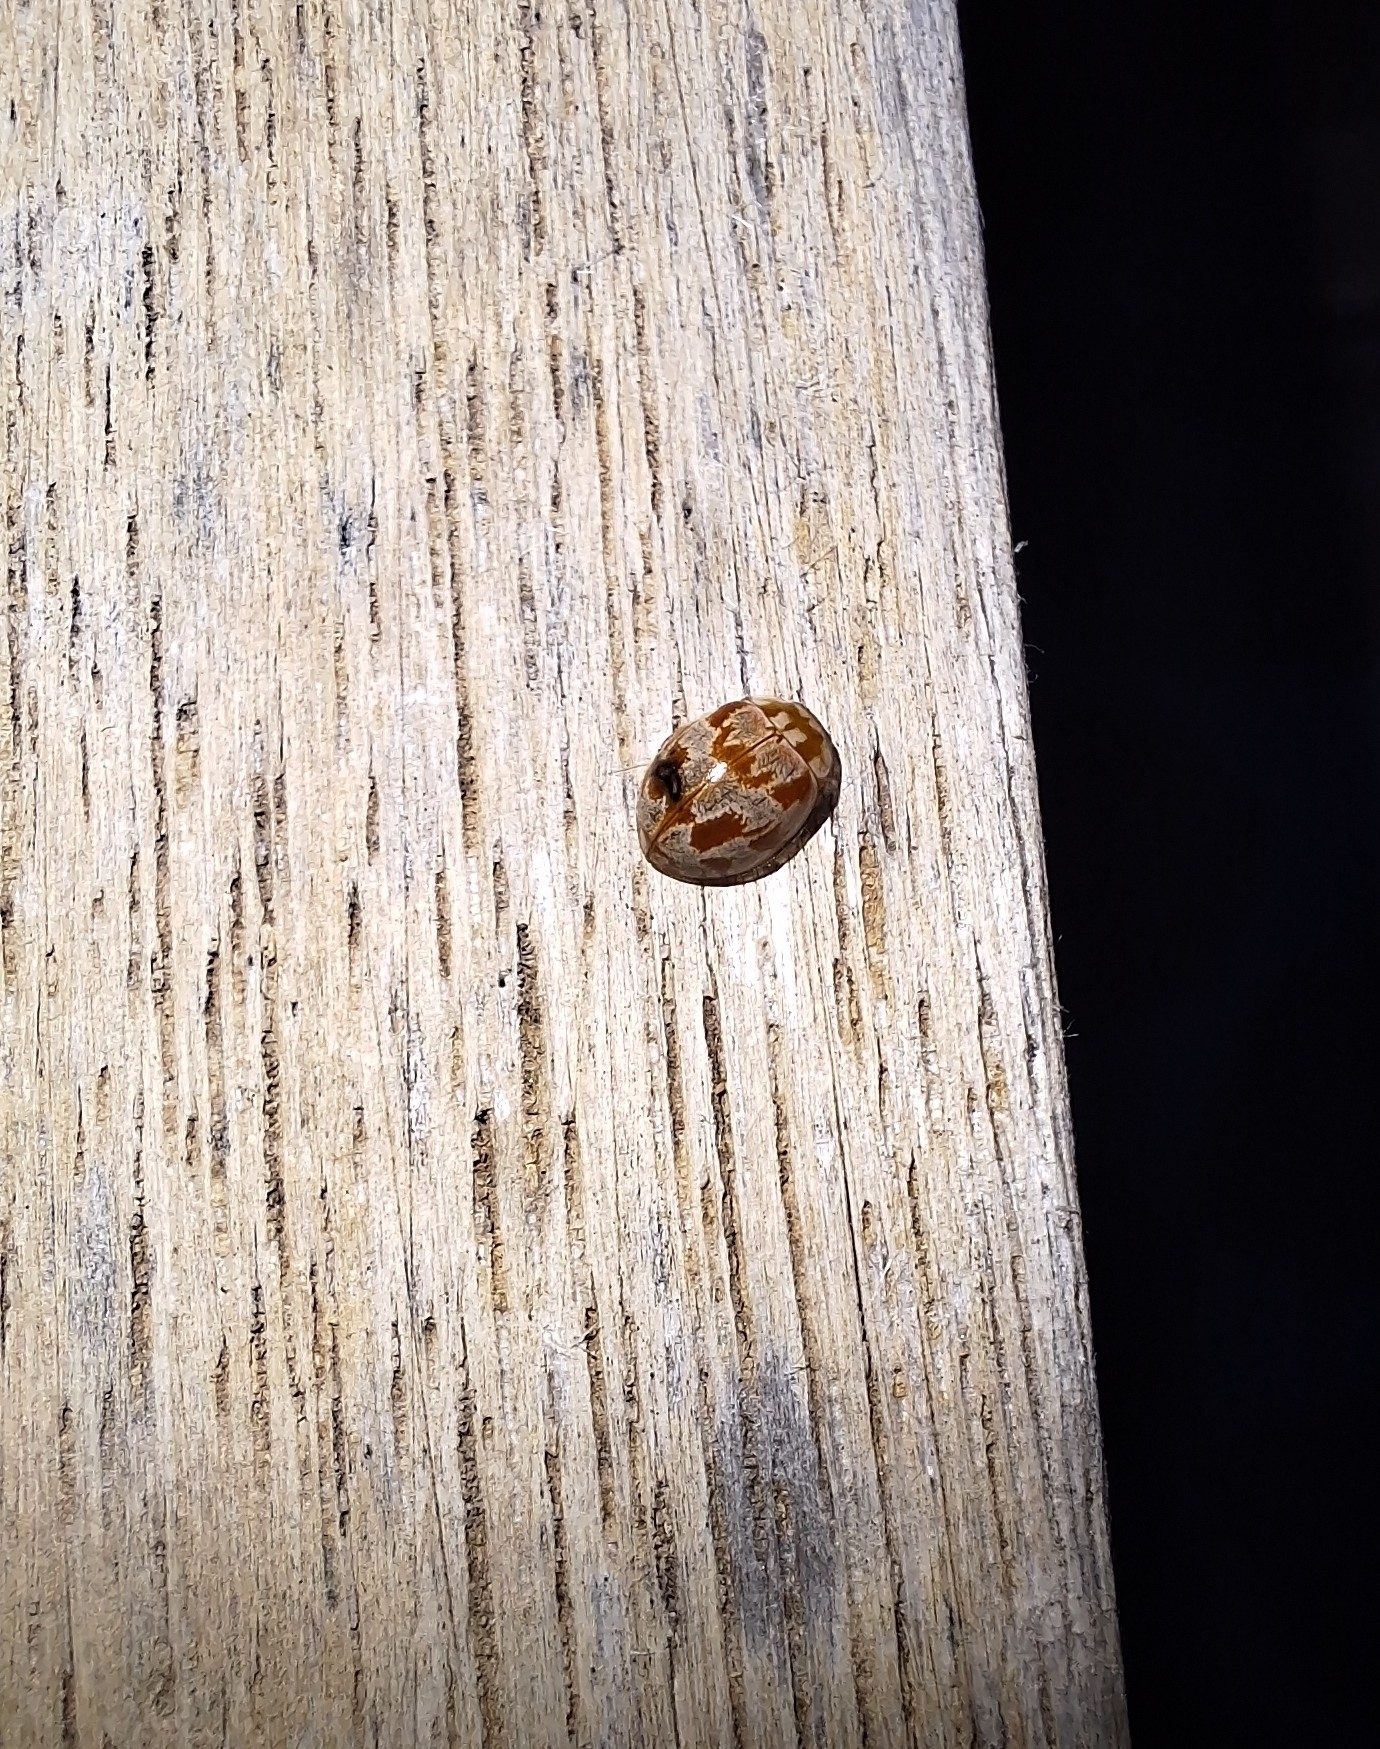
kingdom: Animalia
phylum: Arthropoda
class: Insecta
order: Coleoptera
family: Coccinellidae
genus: Myrrha
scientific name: Myrrha octodecimguttata
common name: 18-spot ladybird
